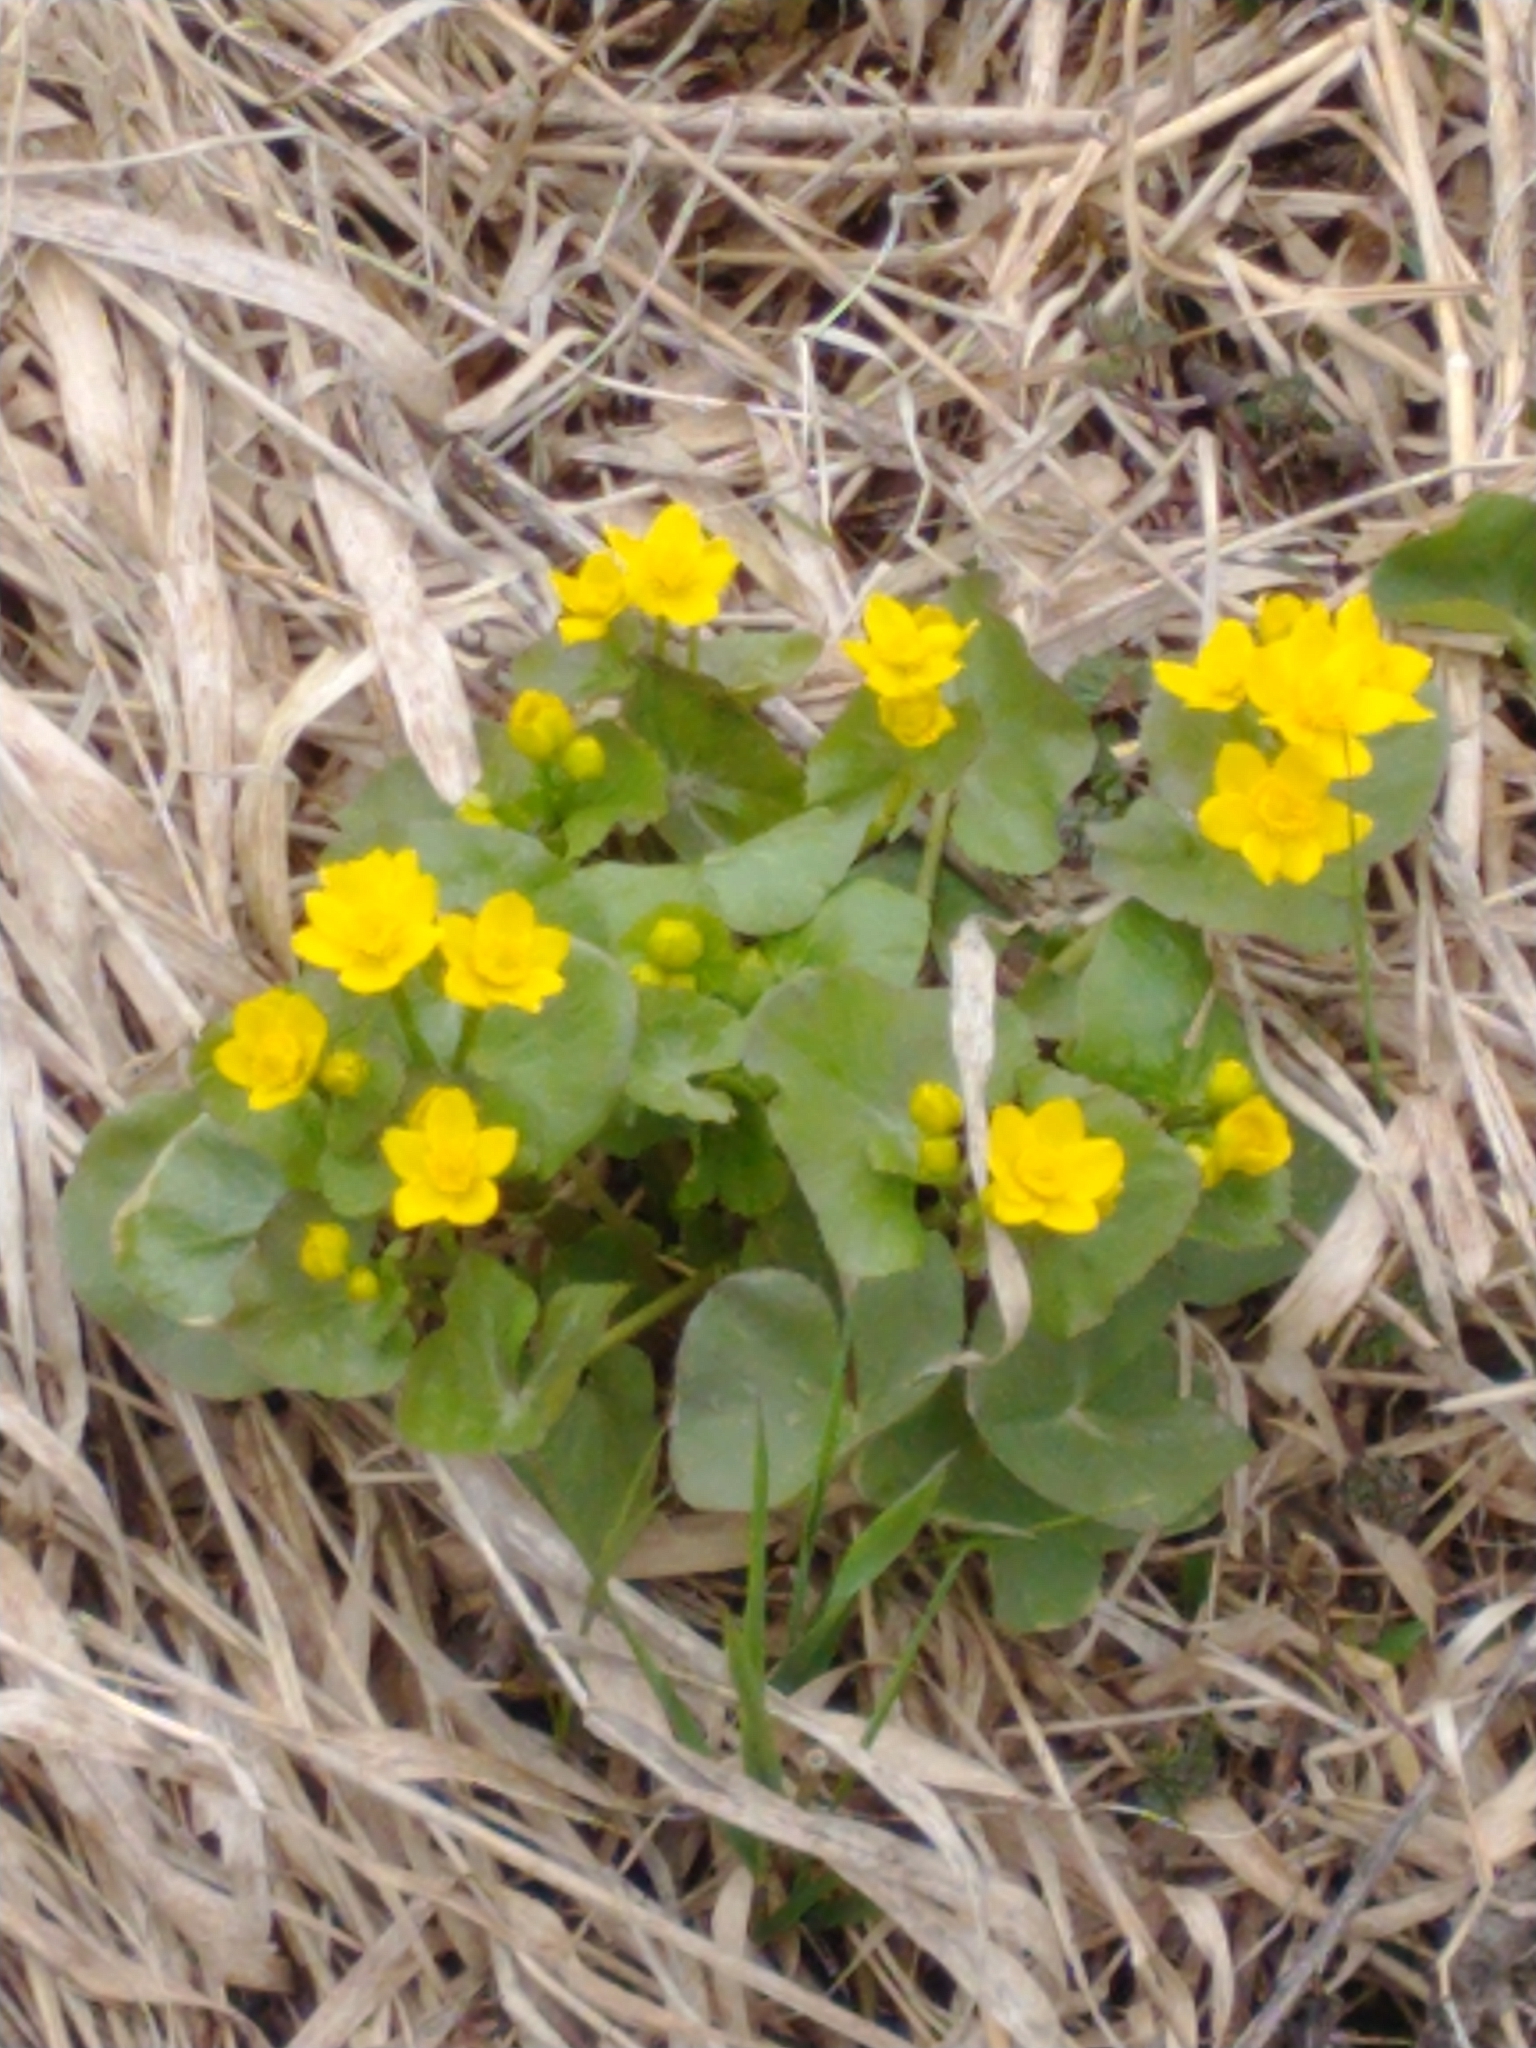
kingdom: Plantae
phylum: Tracheophyta
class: Magnoliopsida
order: Ranunculales
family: Ranunculaceae
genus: Caltha
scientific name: Caltha palustris
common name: Marsh marigold
